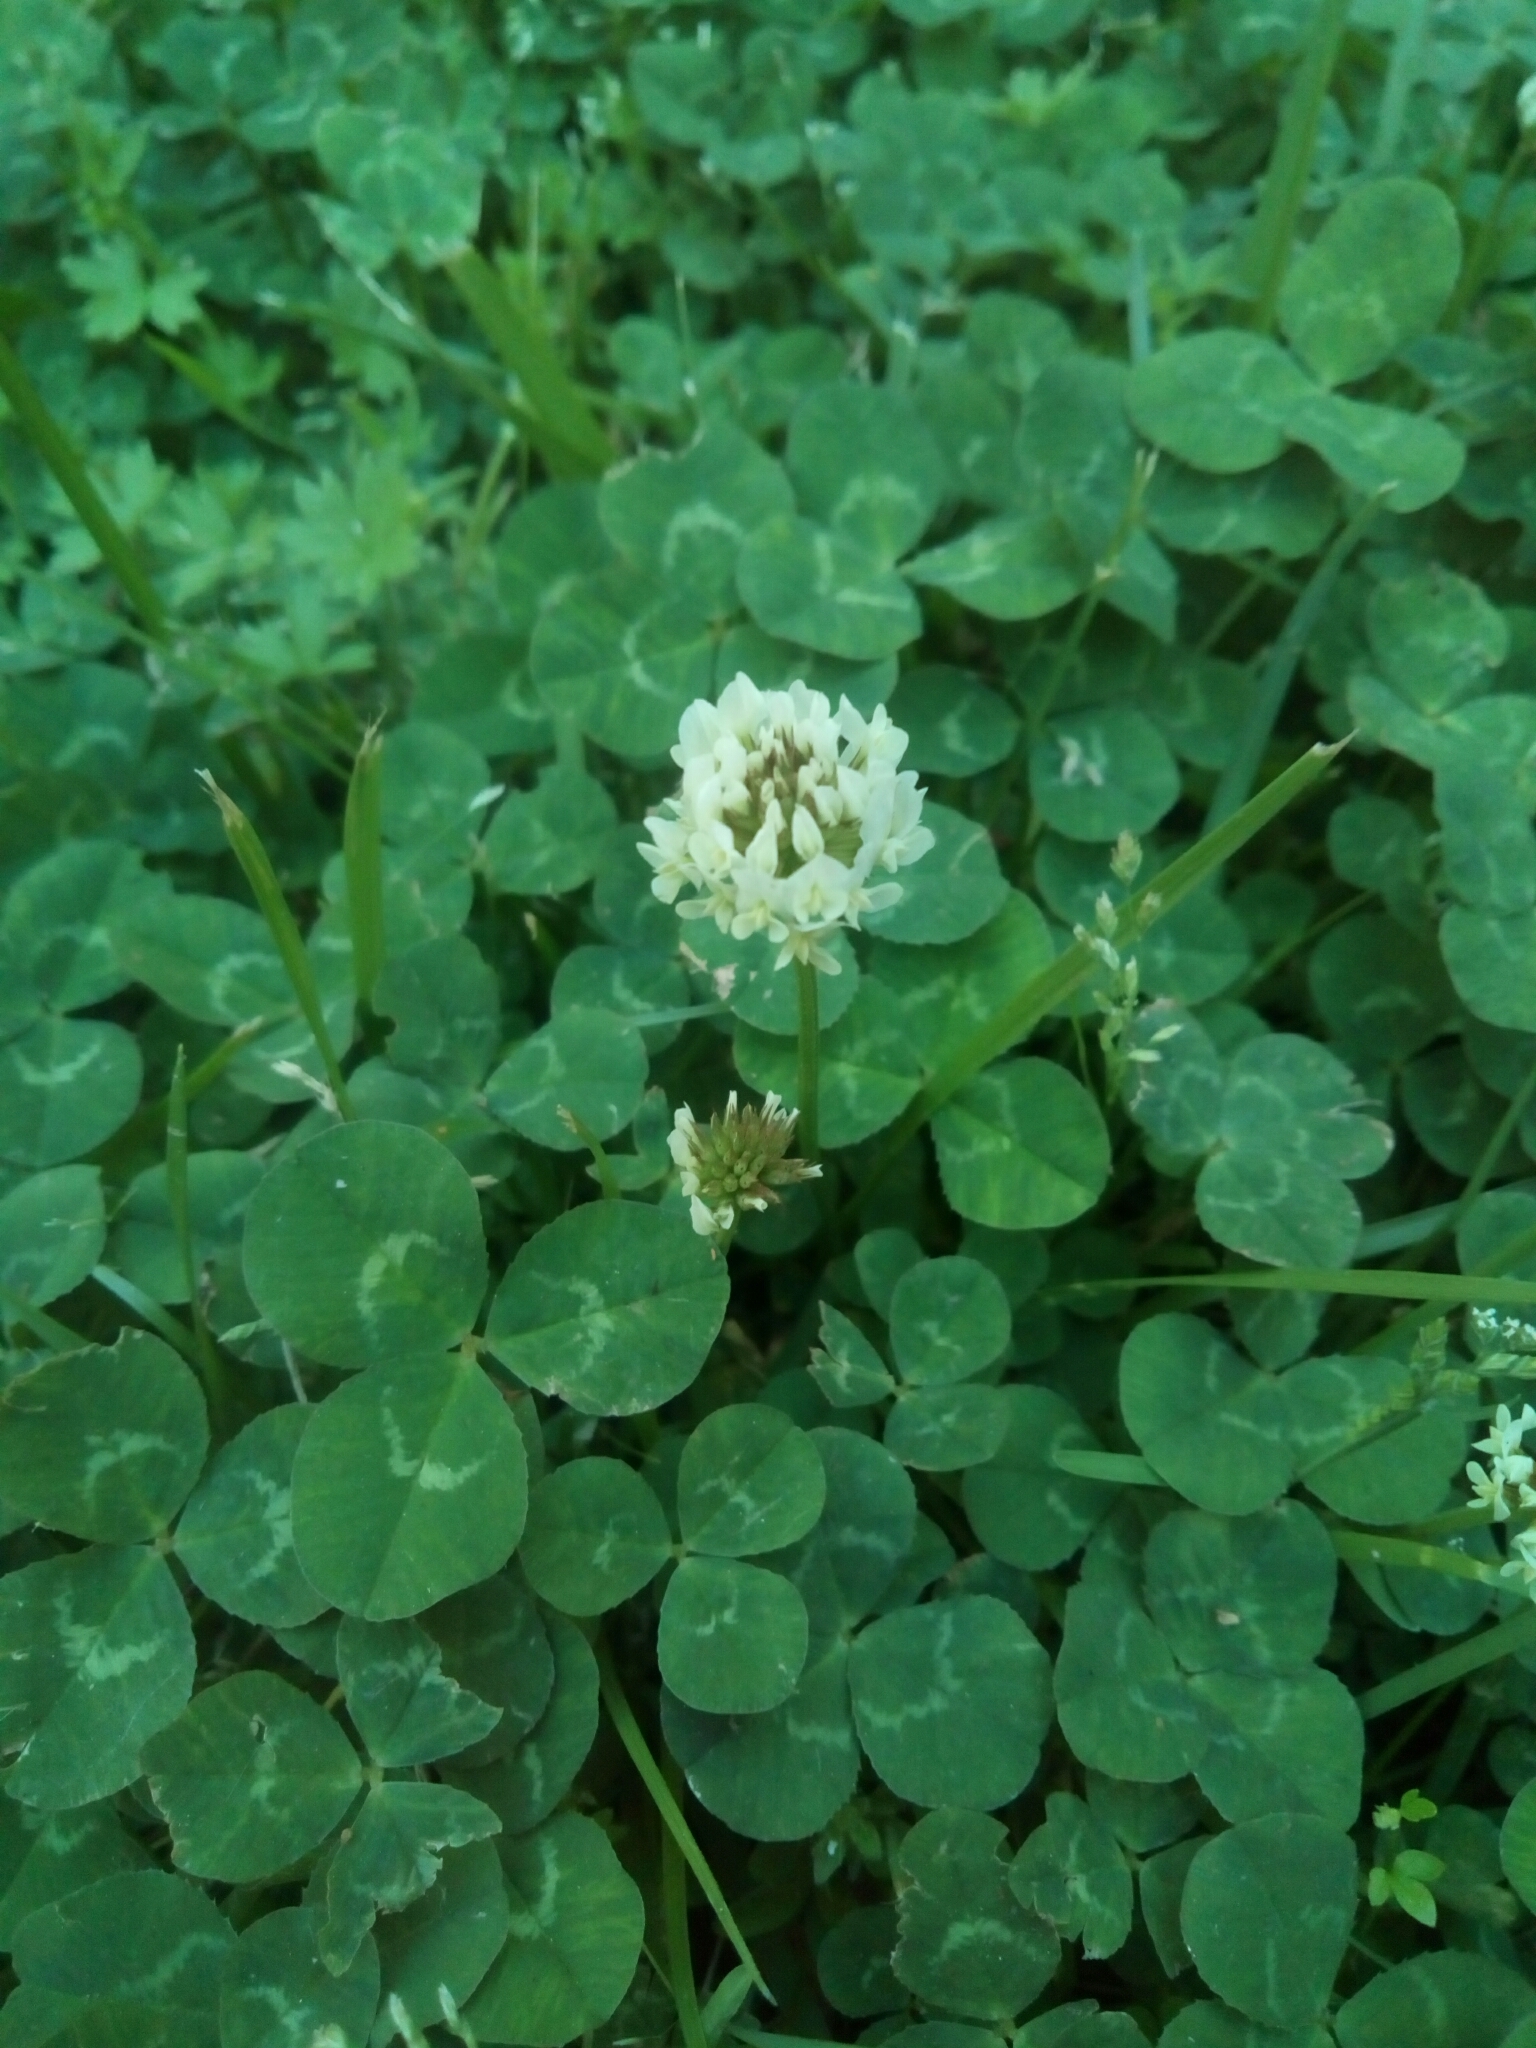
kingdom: Plantae
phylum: Tracheophyta
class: Magnoliopsida
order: Fabales
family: Fabaceae
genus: Trifolium
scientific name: Trifolium repens
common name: White clover
